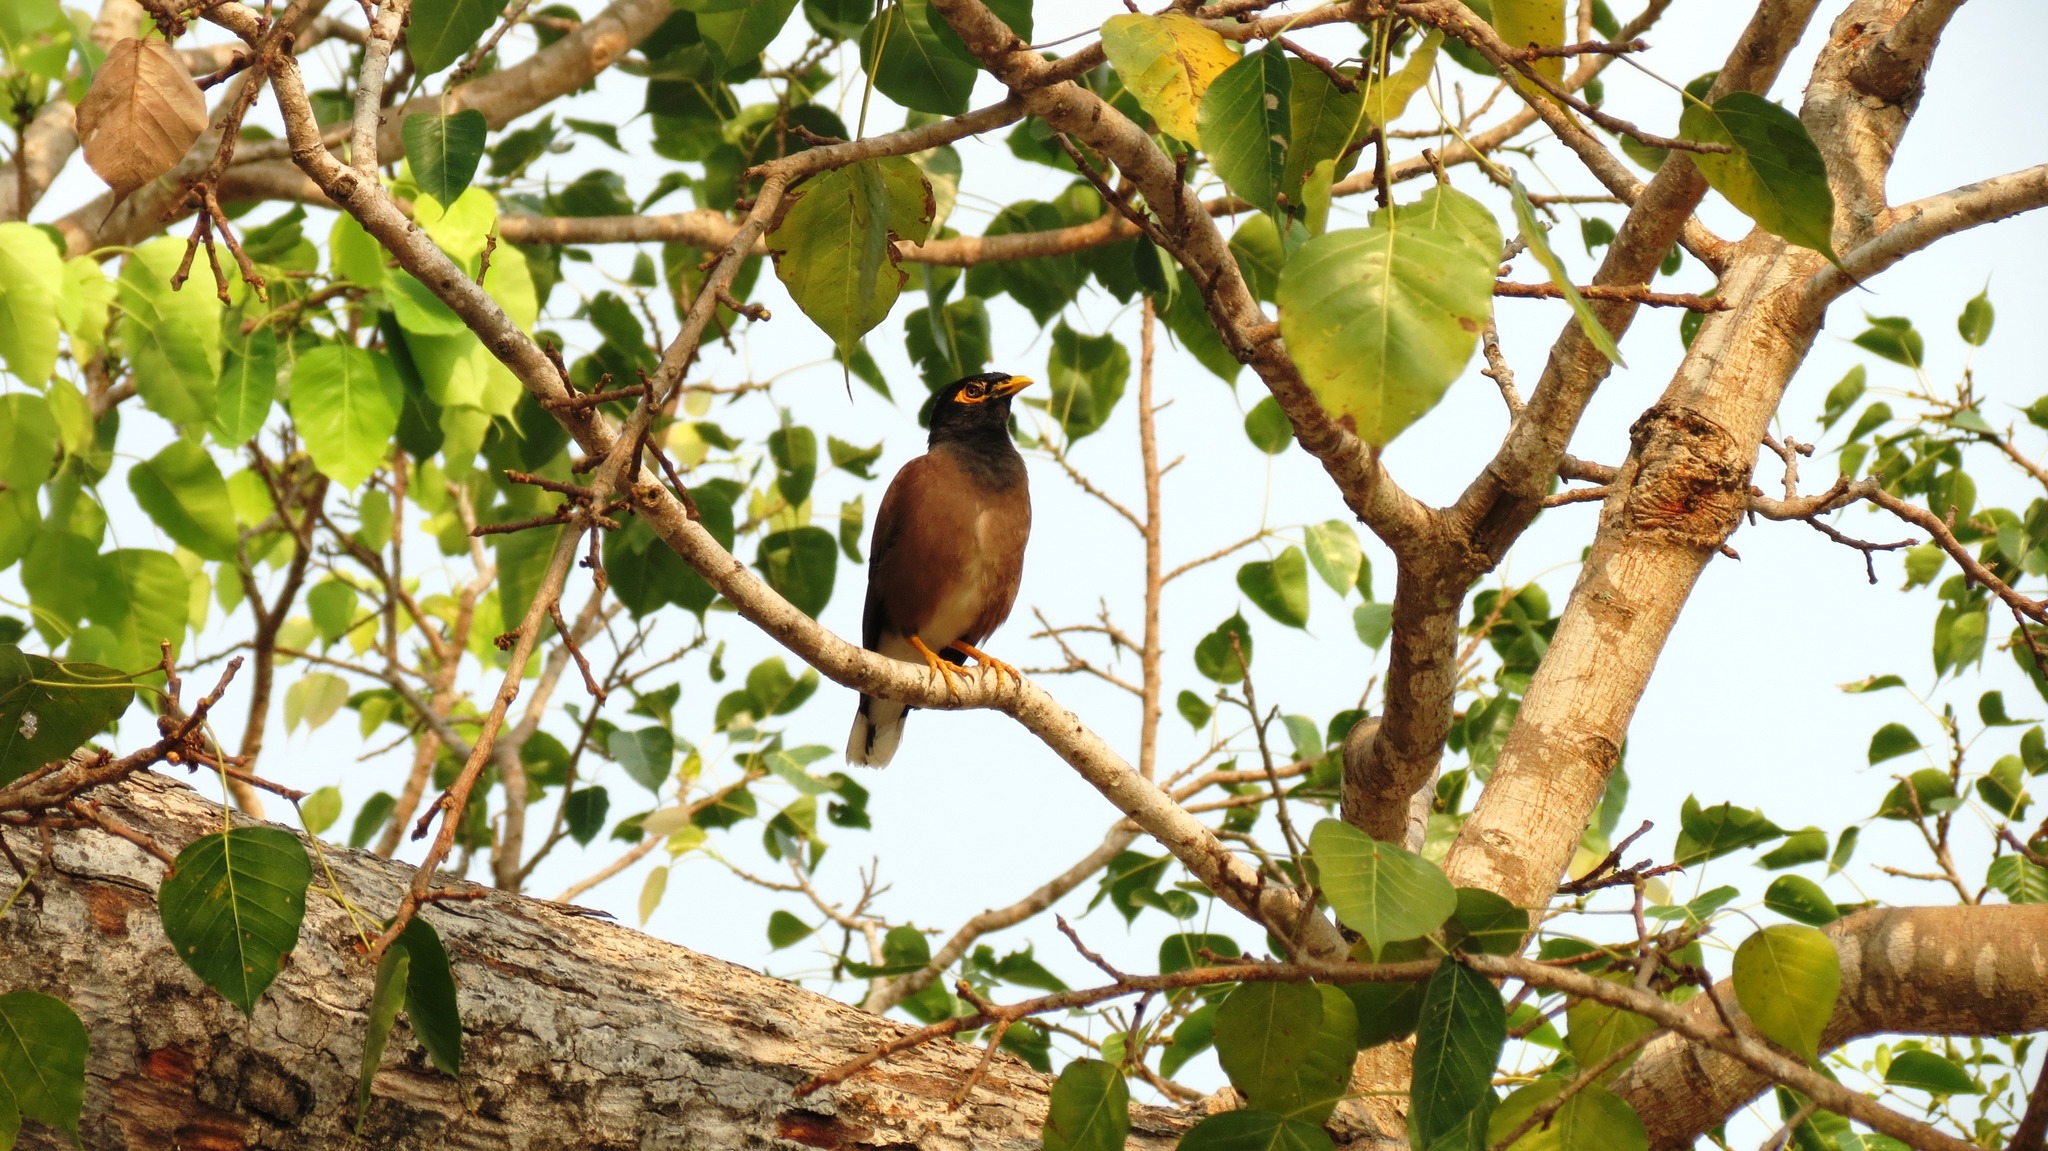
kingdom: Animalia
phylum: Chordata
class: Aves
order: Passeriformes
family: Sturnidae
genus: Acridotheres
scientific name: Acridotheres tristis
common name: Common myna
